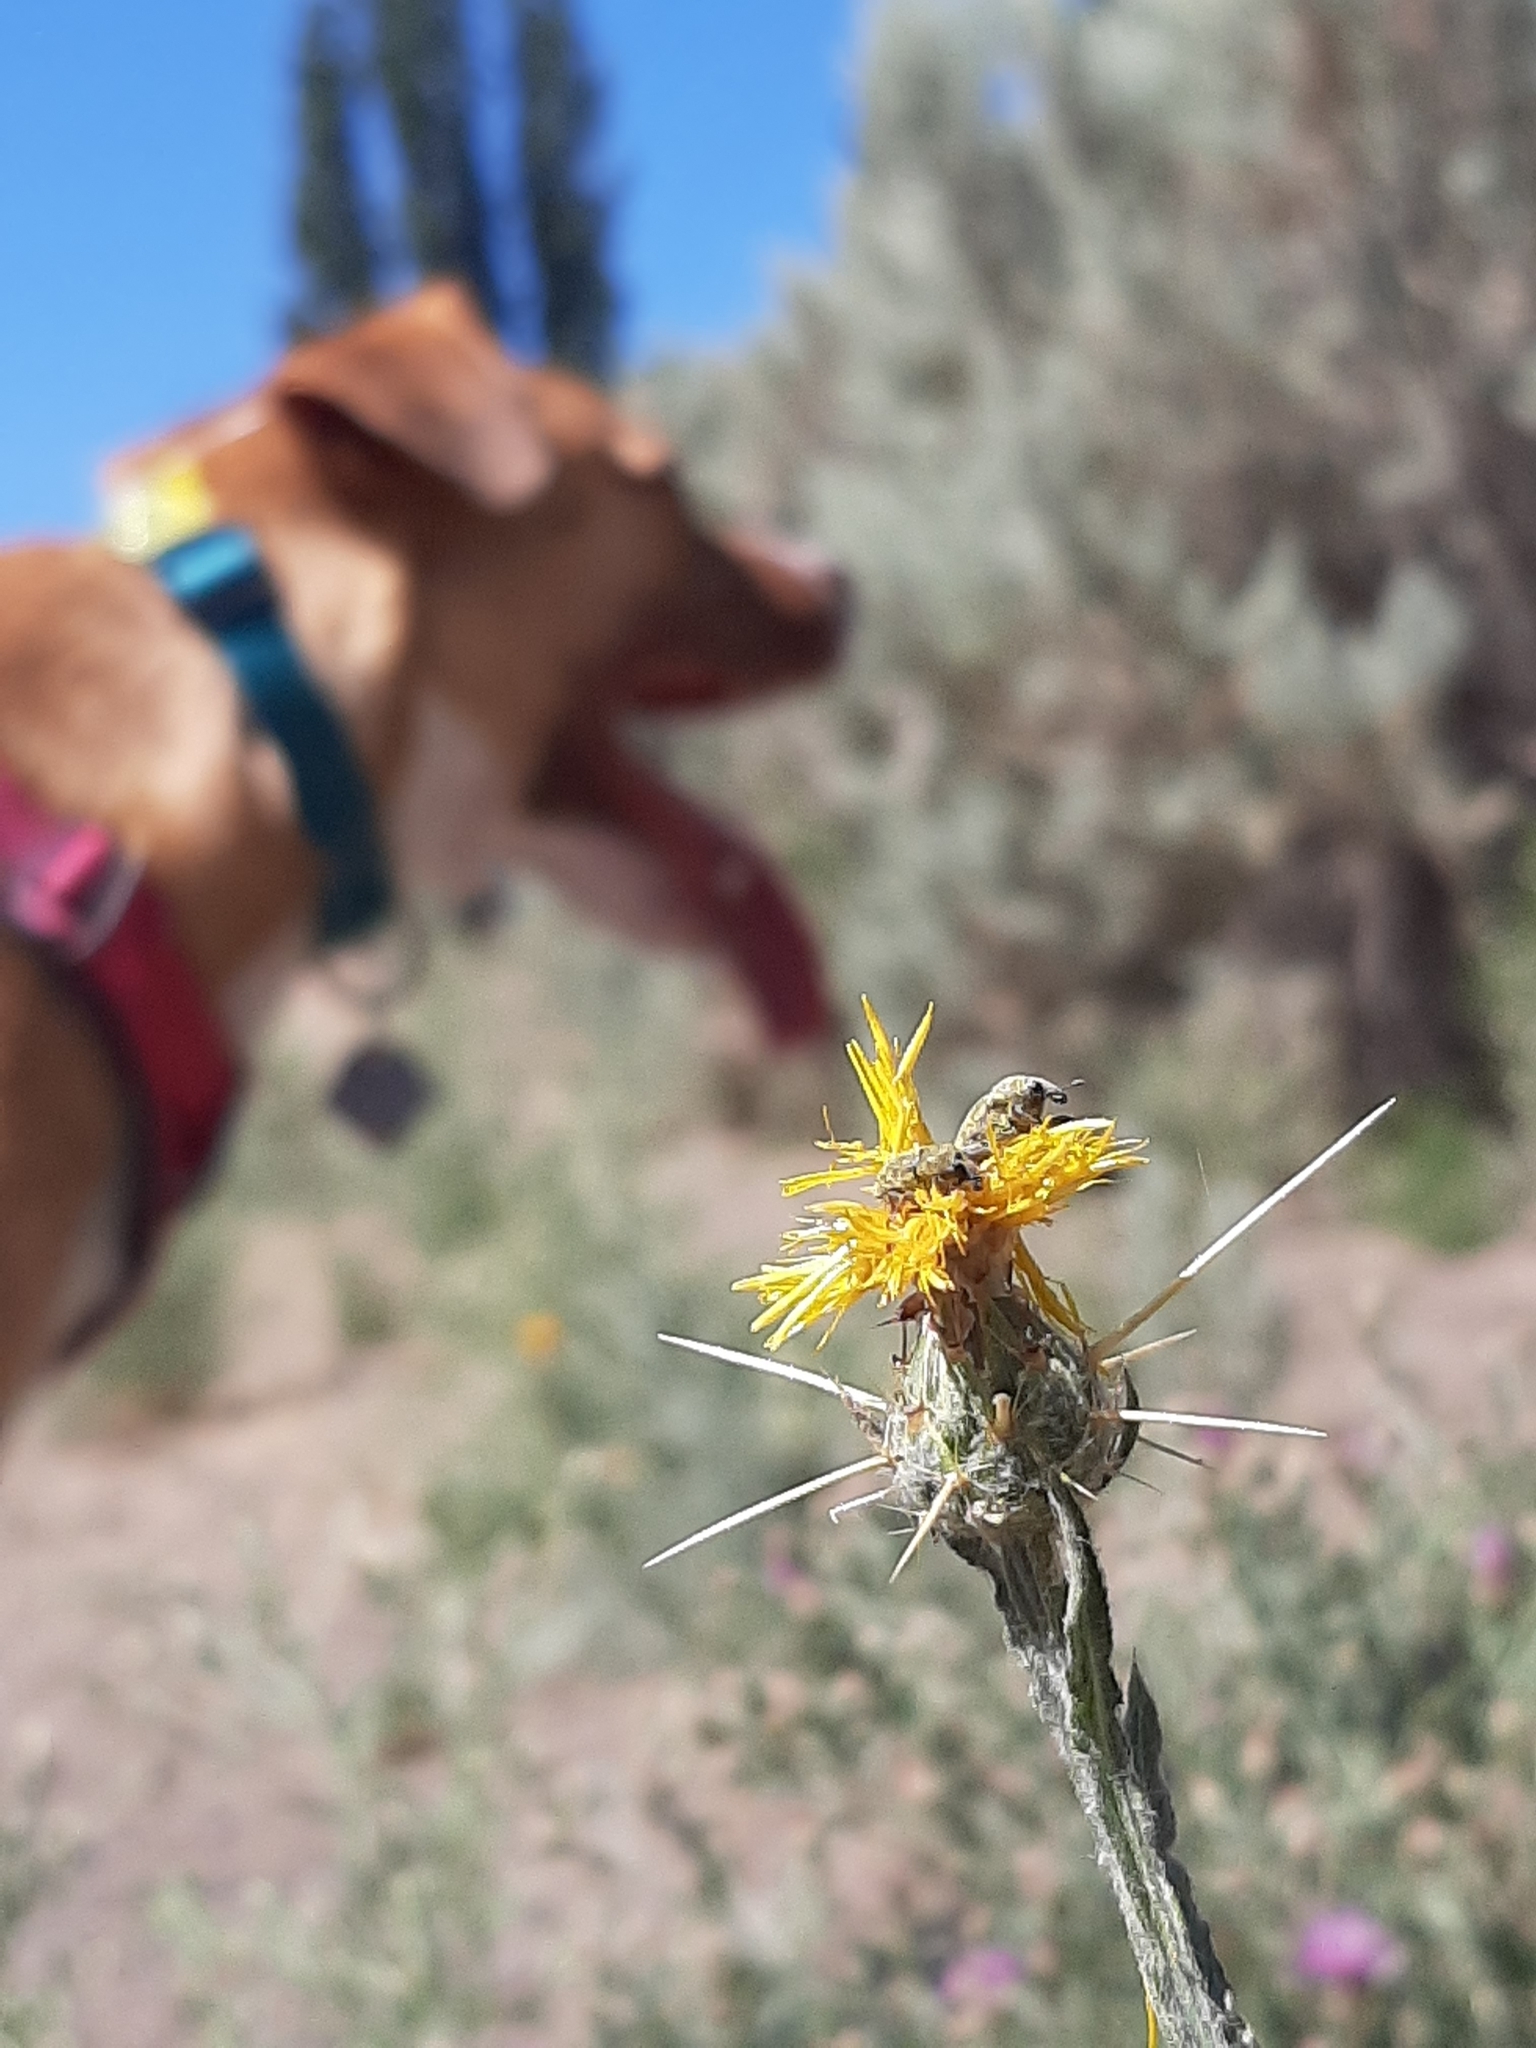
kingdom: Animalia
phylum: Arthropoda
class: Insecta
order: Coleoptera
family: Curculionidae
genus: Larinus
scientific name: Larinus curtus
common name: Weevil
